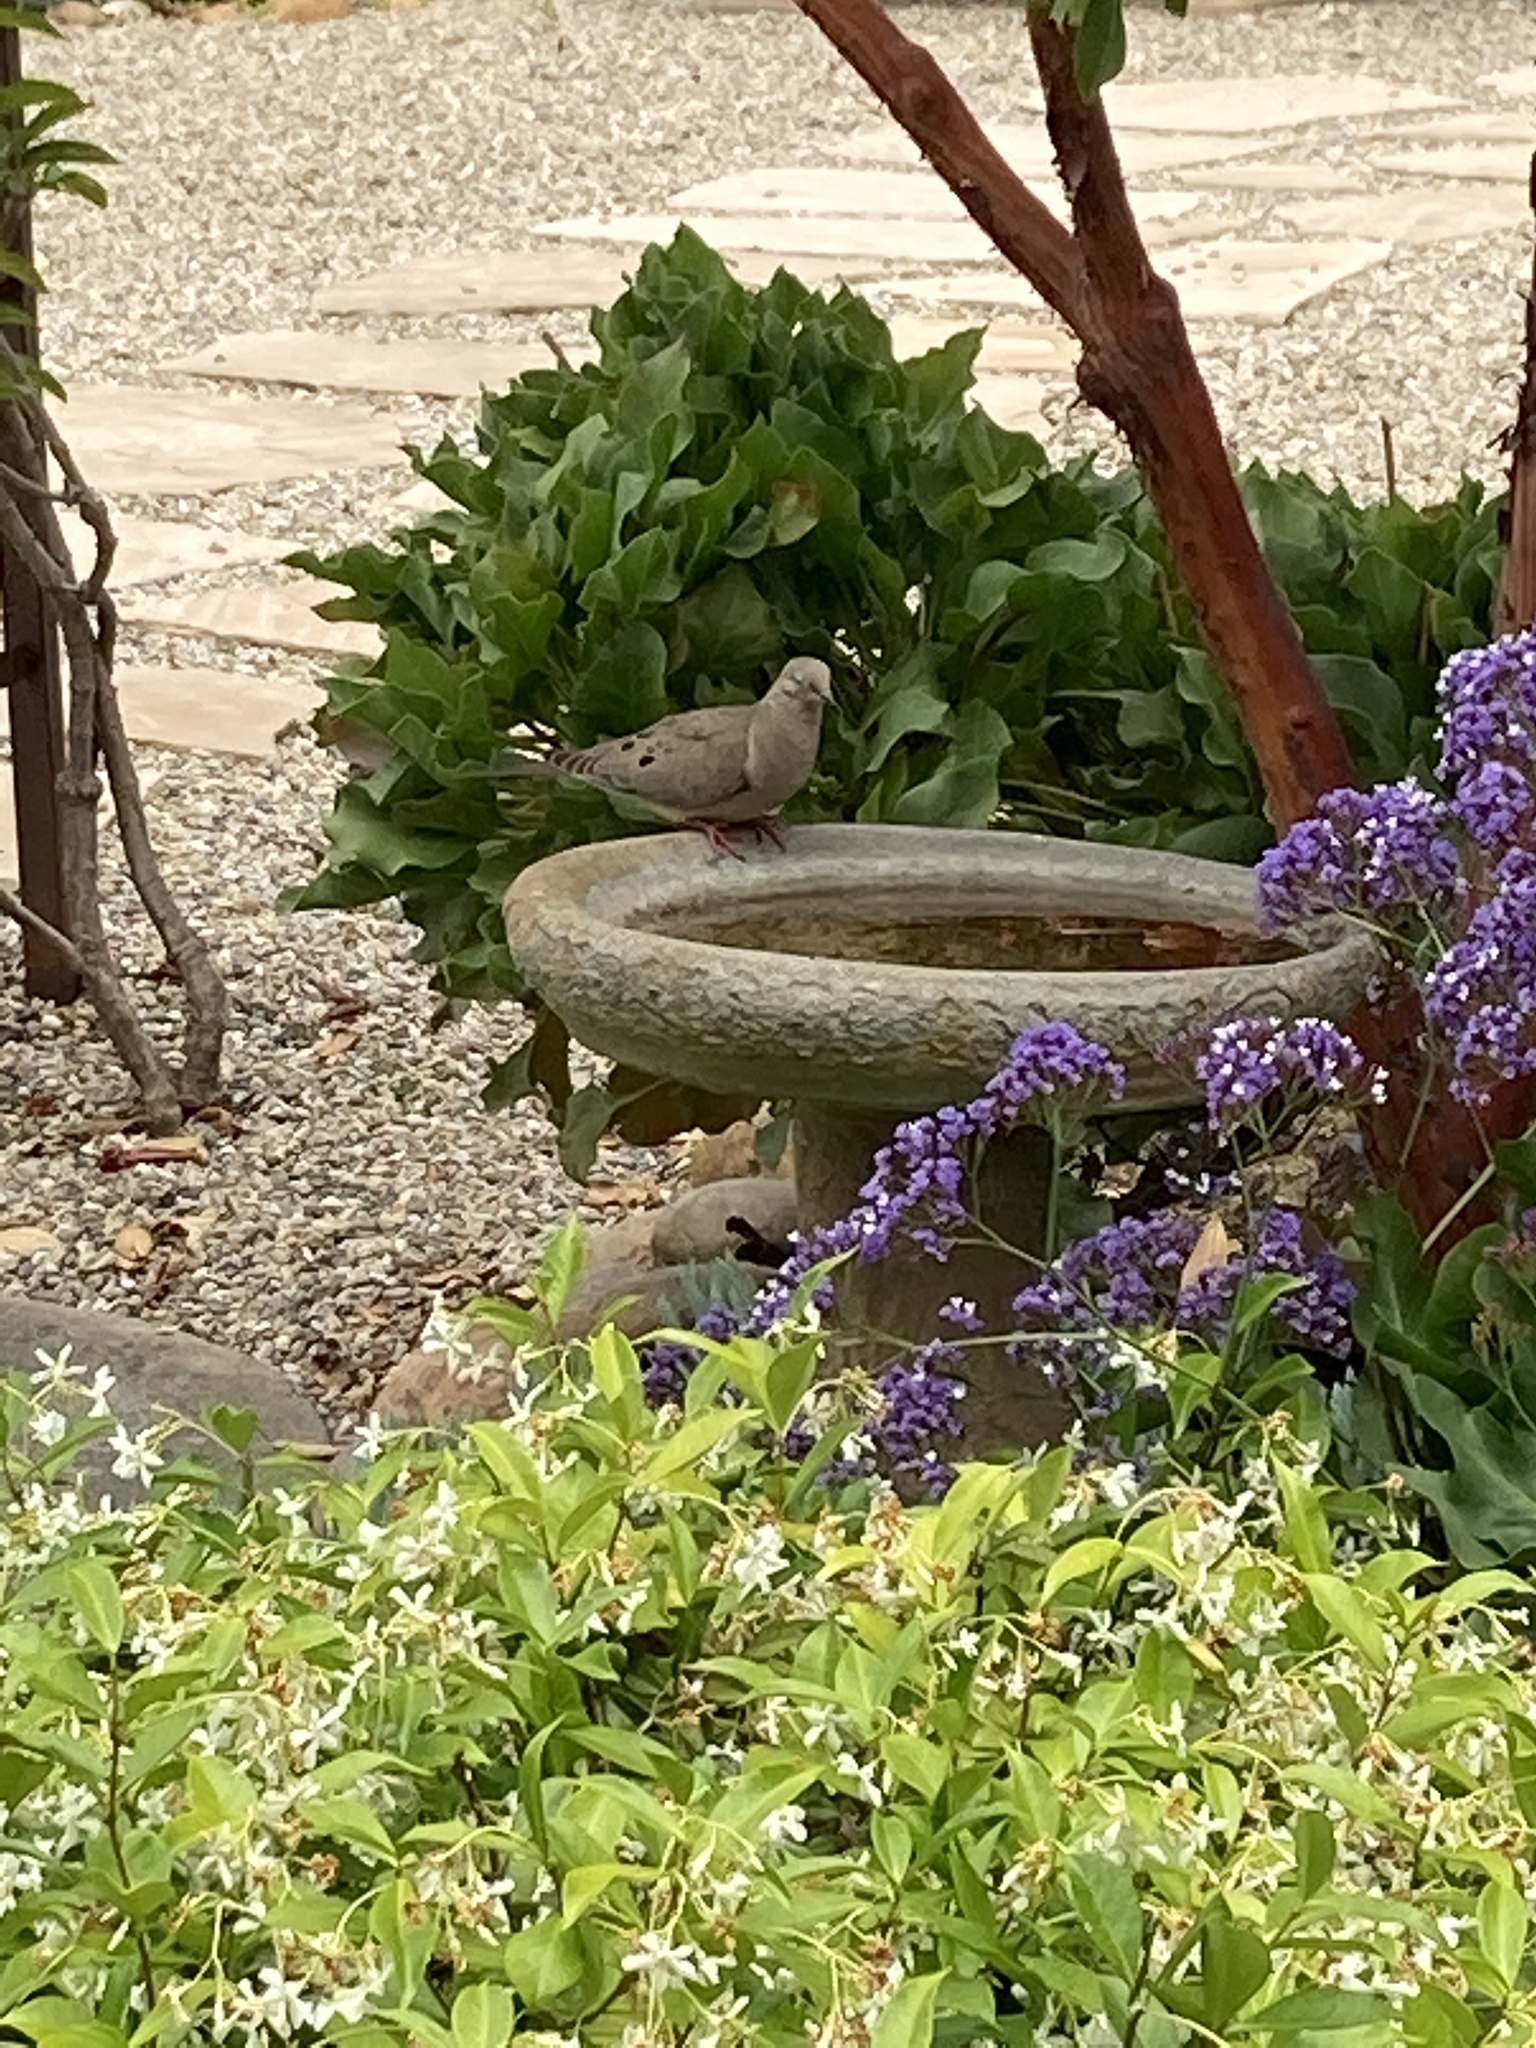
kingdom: Animalia
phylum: Chordata
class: Aves
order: Columbiformes
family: Columbidae
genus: Zenaida
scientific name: Zenaida macroura
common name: Mourning dove
